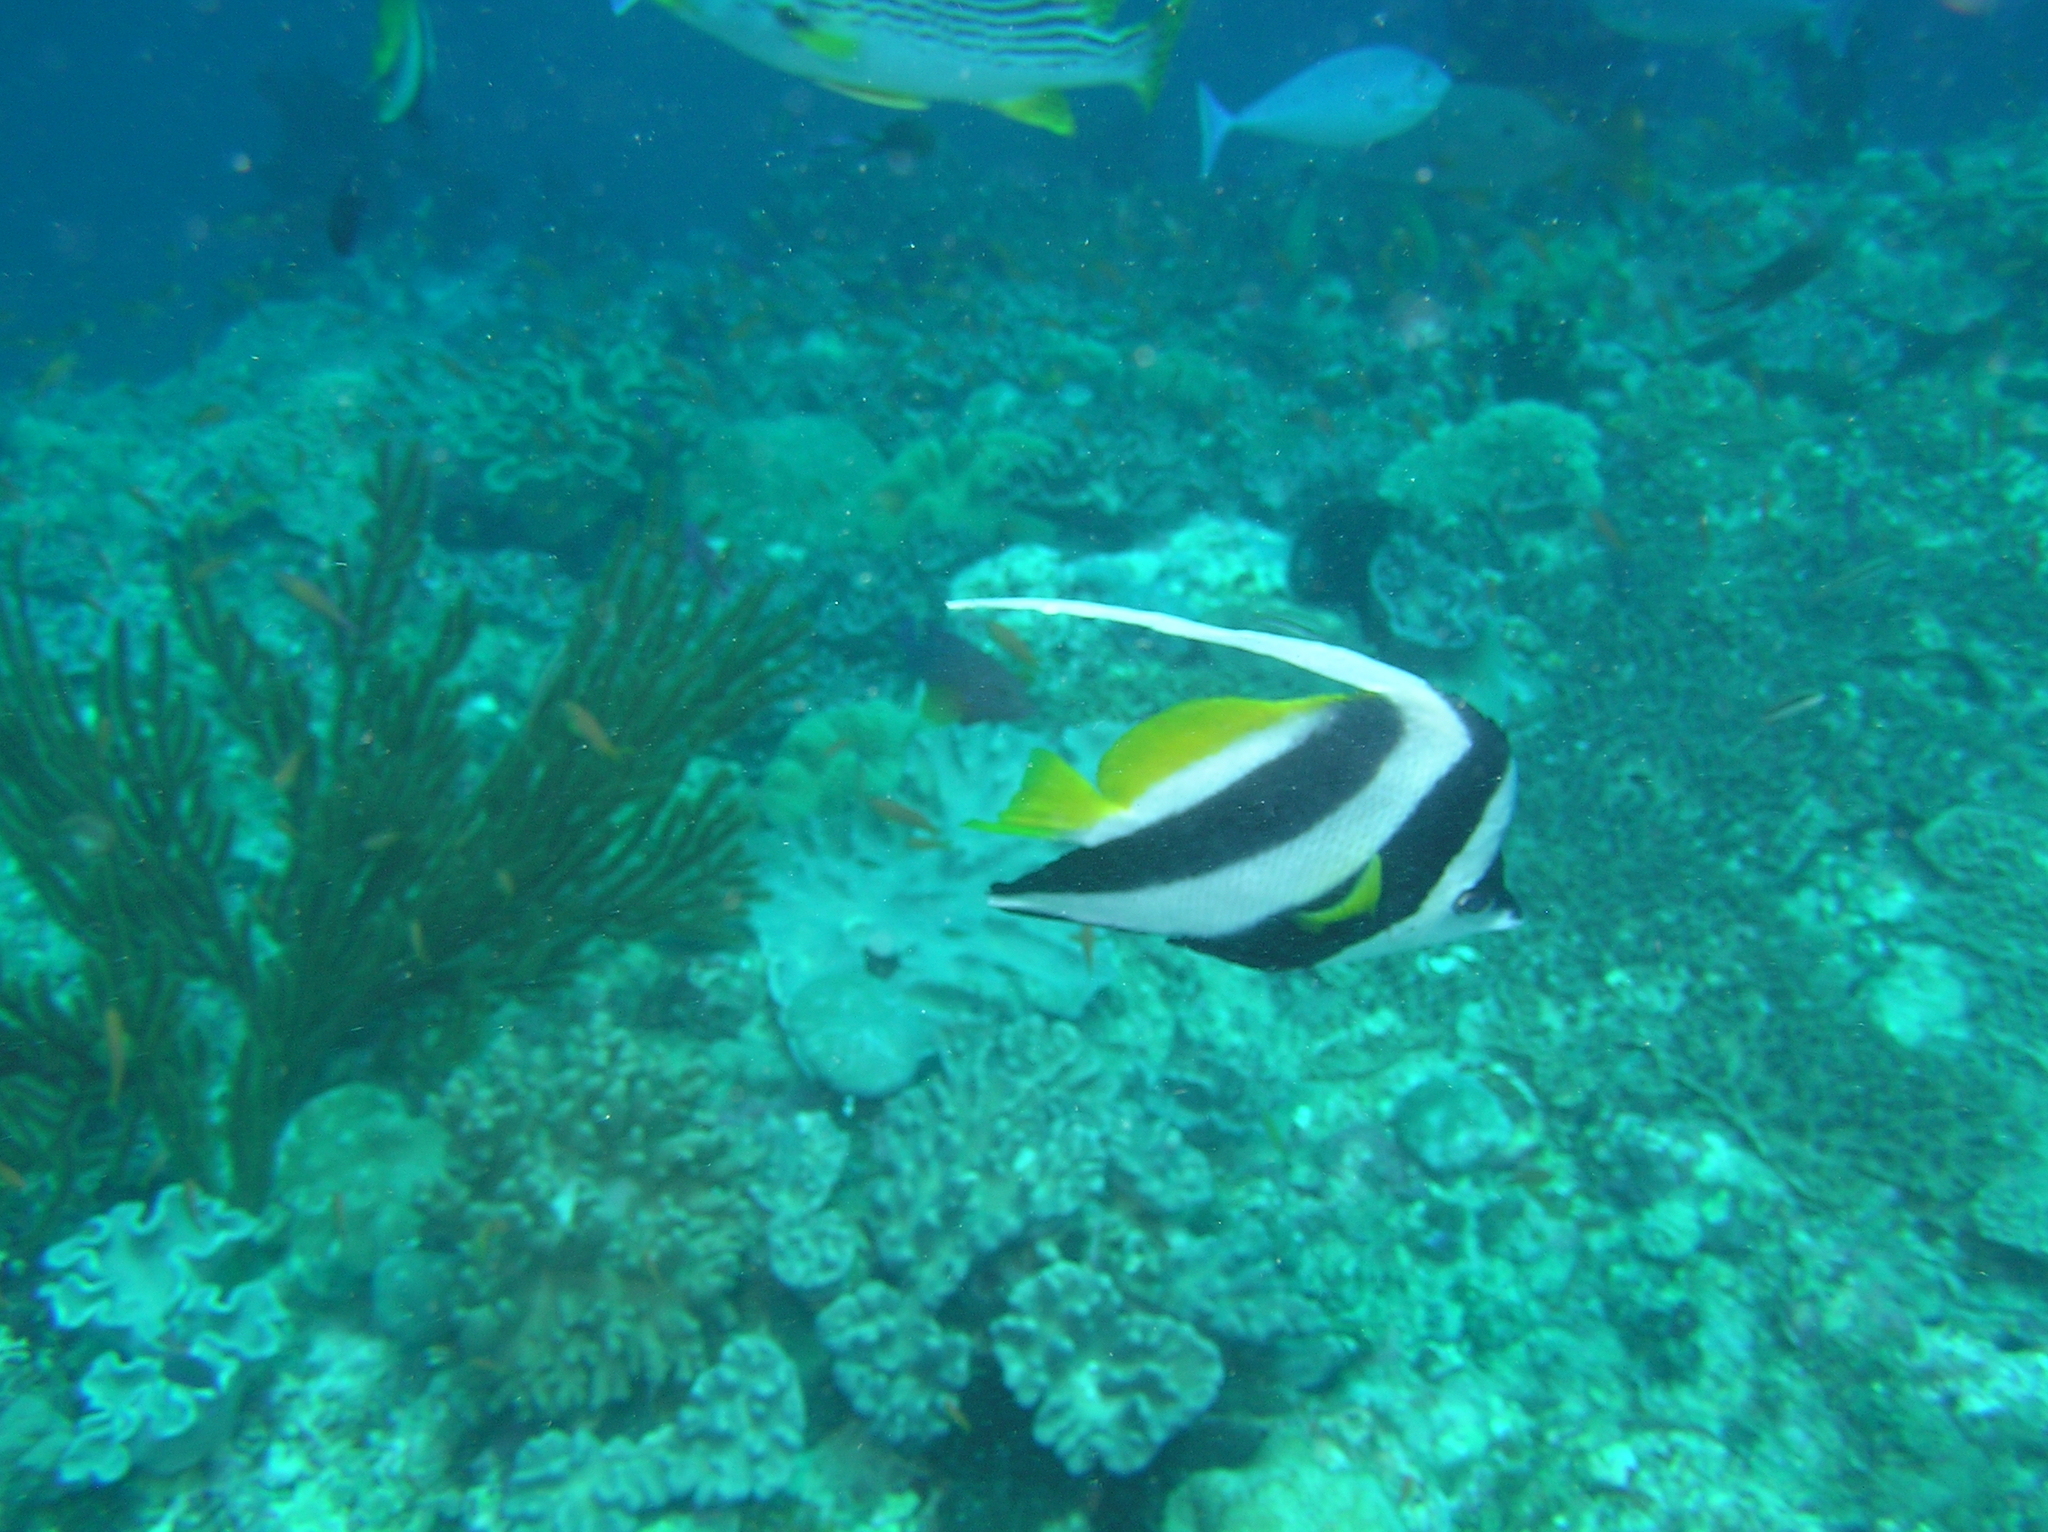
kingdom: Animalia
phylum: Chordata
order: Perciformes
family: Chaetodontidae
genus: Heniochus
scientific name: Heniochus acuminatus
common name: Pennant coralfish
